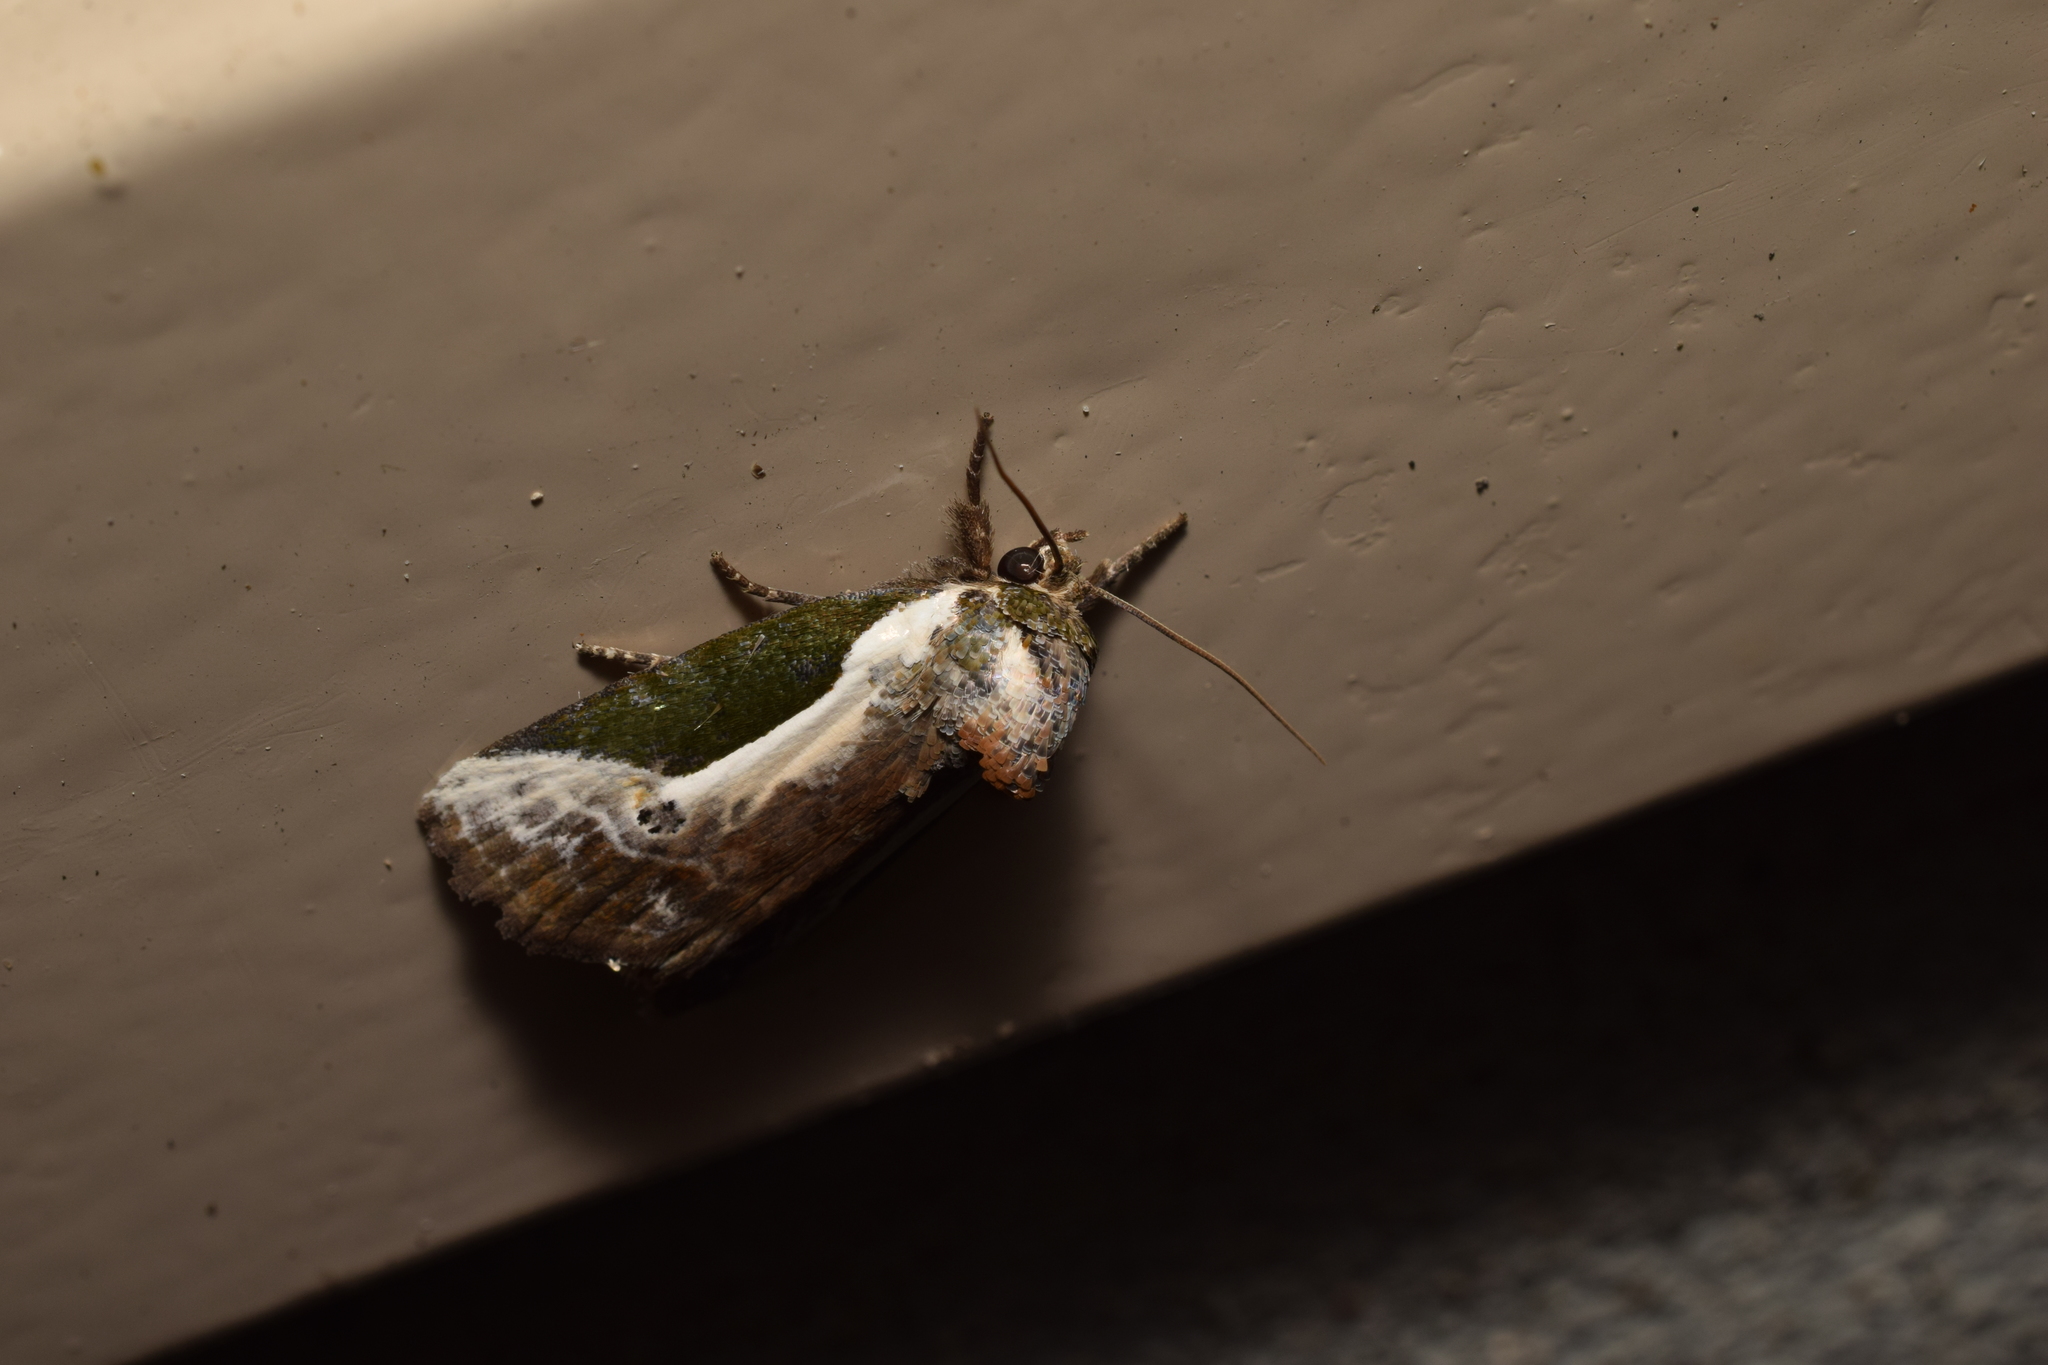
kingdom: Animalia
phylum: Arthropoda
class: Insecta
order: Lepidoptera
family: Noctuidae
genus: Stenoloba
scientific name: Stenoloba jankowskii
